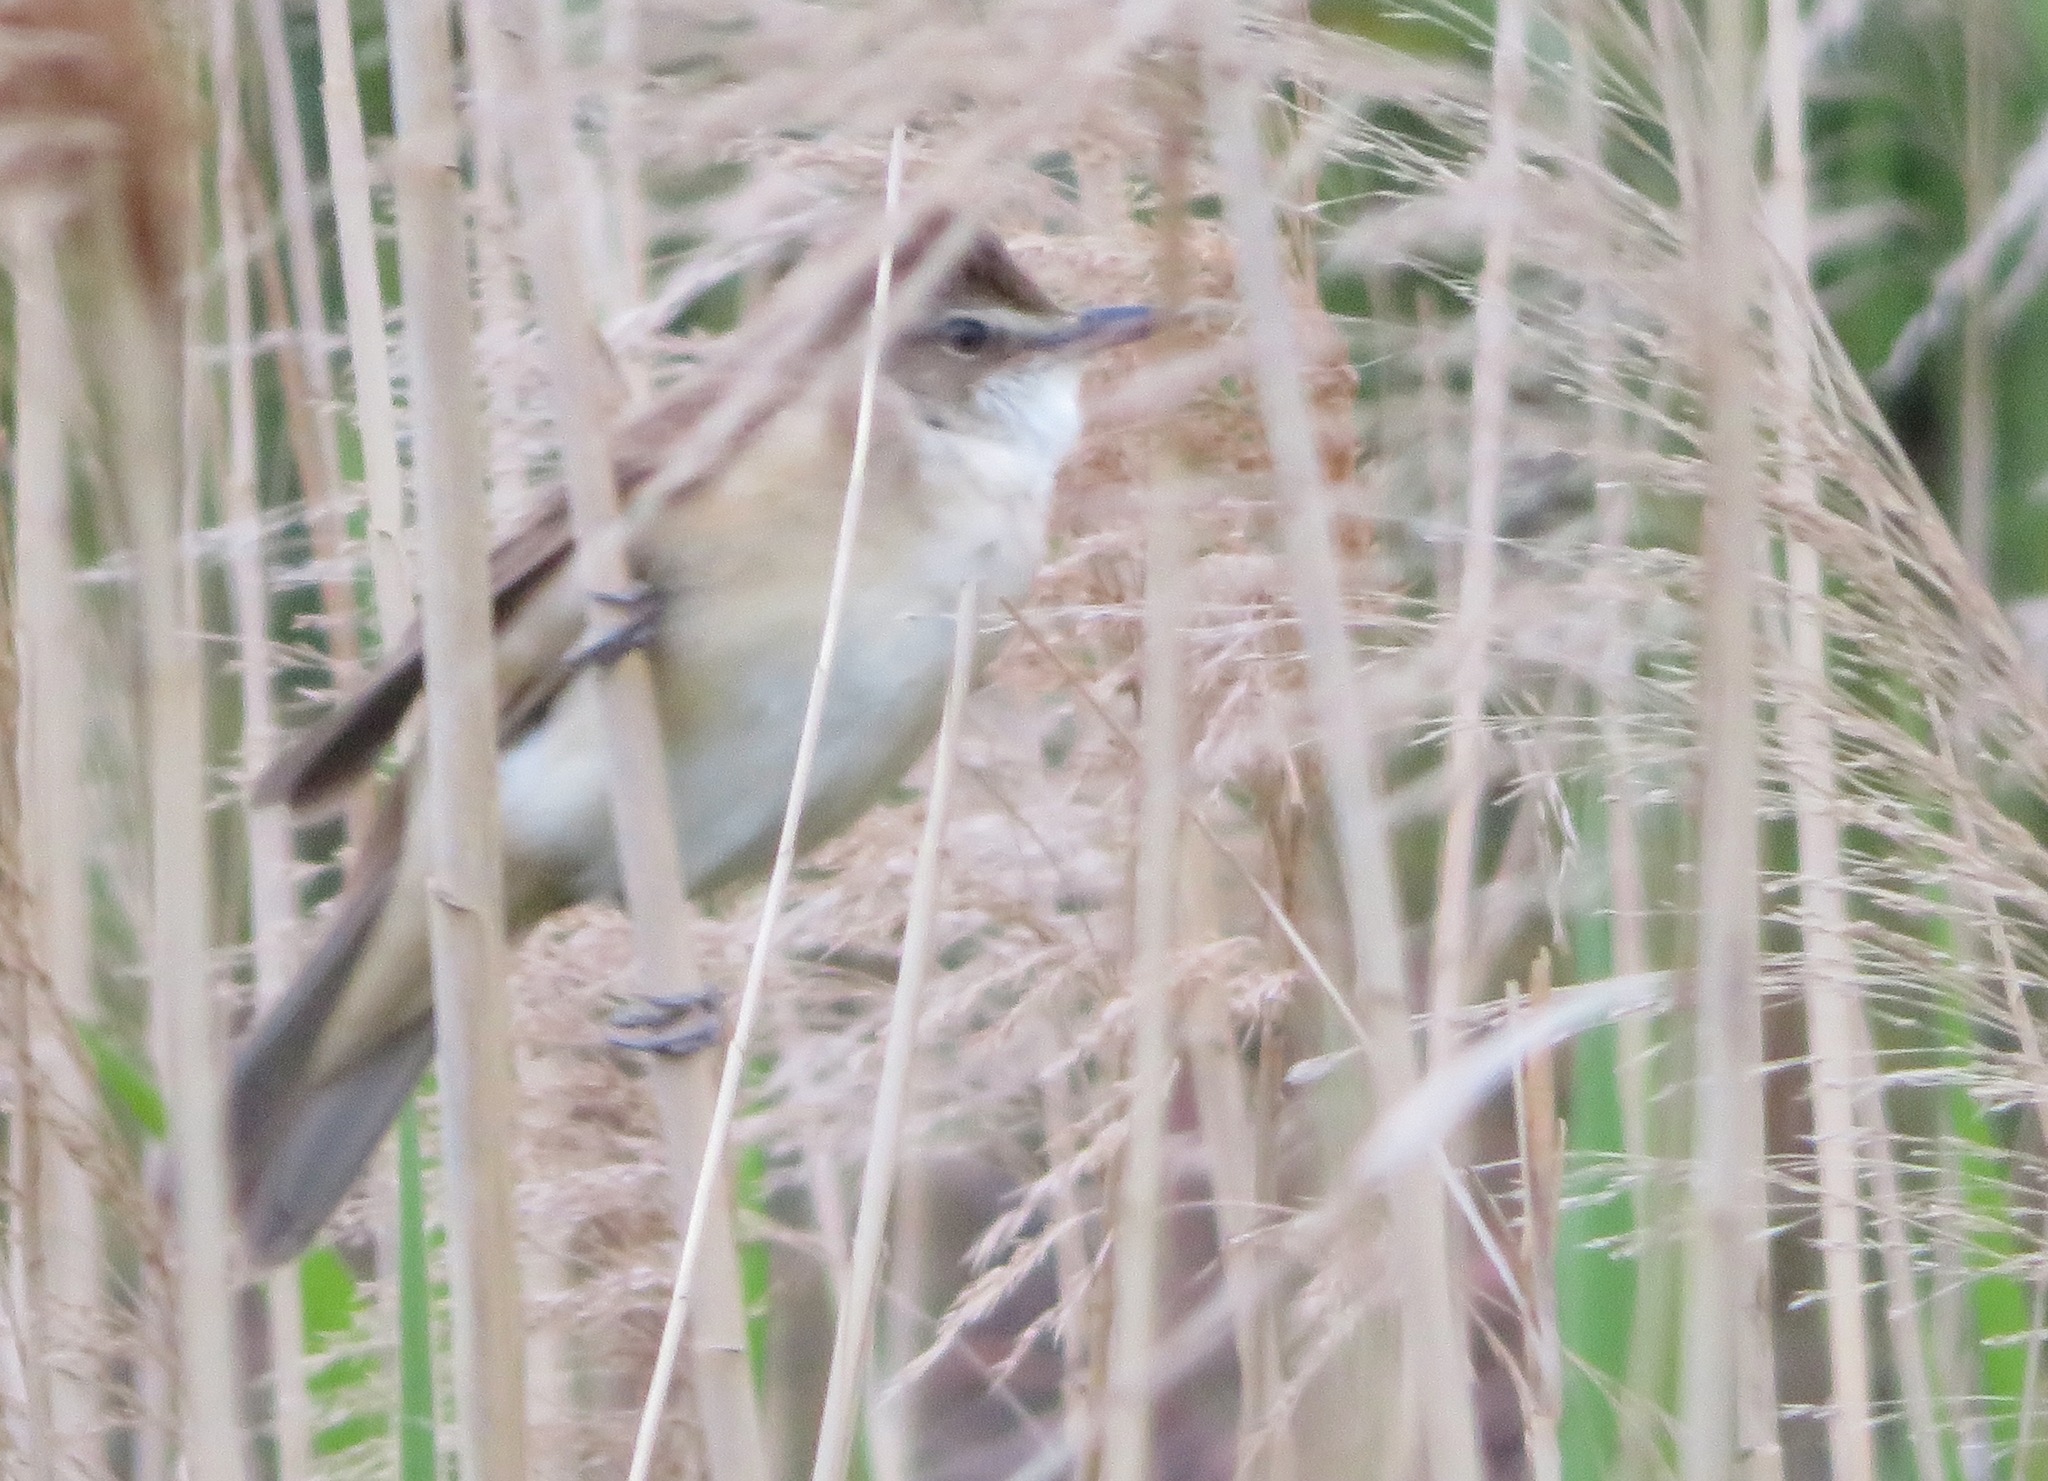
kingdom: Animalia
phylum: Chordata
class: Aves
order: Passeriformes
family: Acrocephalidae
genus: Acrocephalus
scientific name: Acrocephalus arundinaceus
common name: Great reed warbler
